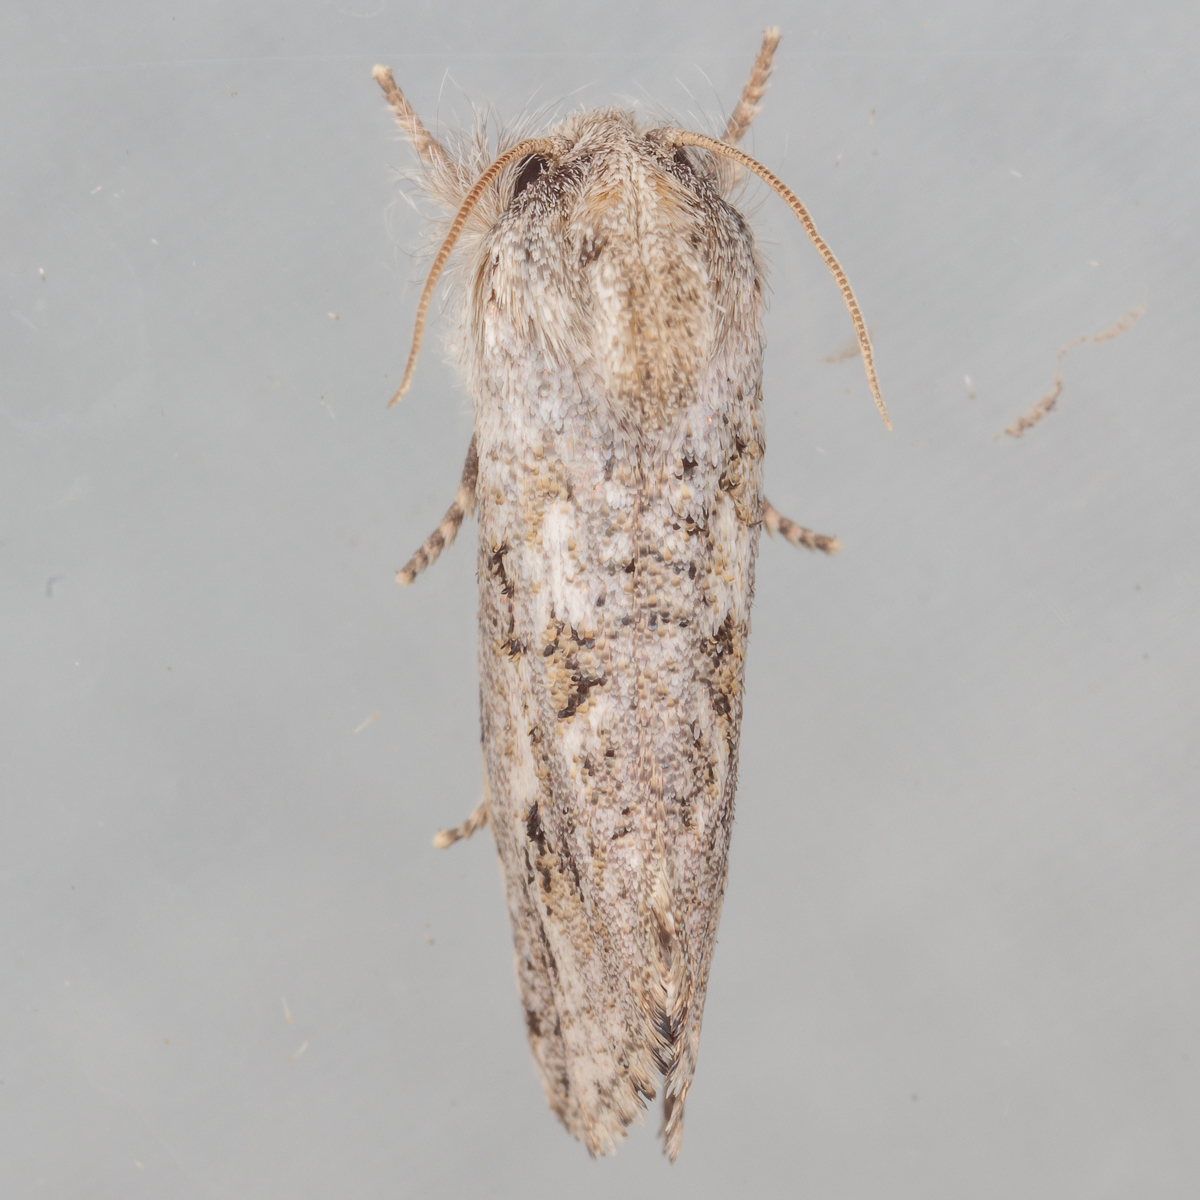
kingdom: Animalia
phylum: Arthropoda
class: Insecta
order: Lepidoptera
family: Tineidae
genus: Acrolophus
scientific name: Acrolophus griseus
